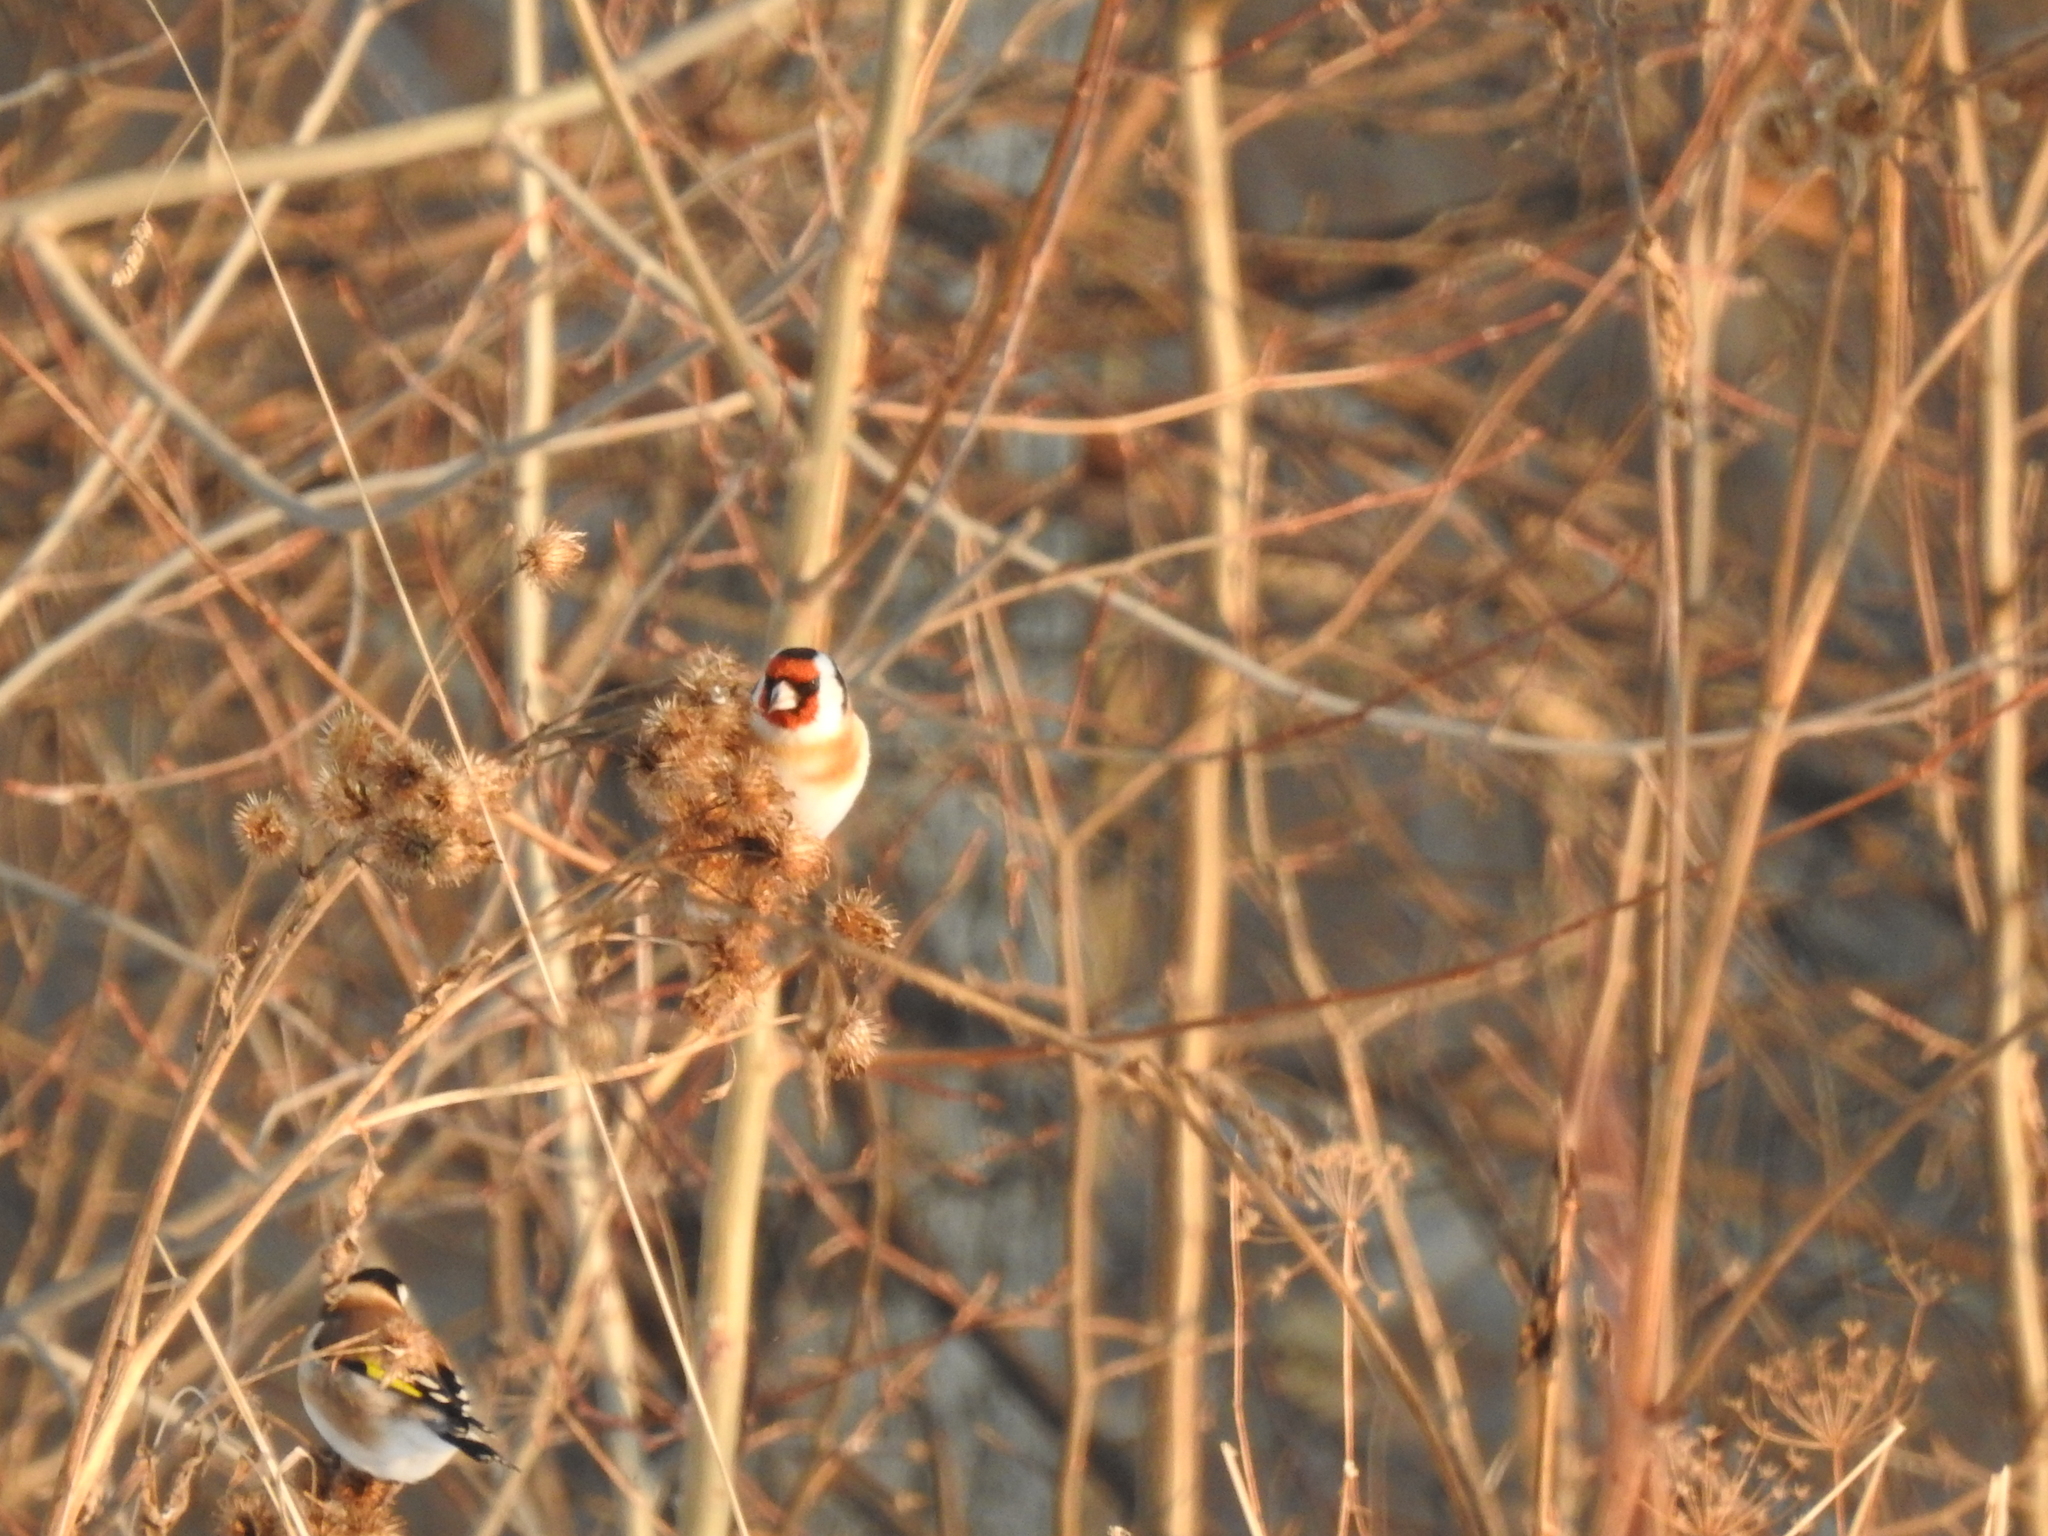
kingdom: Animalia
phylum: Chordata
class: Aves
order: Passeriformes
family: Fringillidae
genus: Carduelis
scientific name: Carduelis carduelis
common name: European goldfinch
